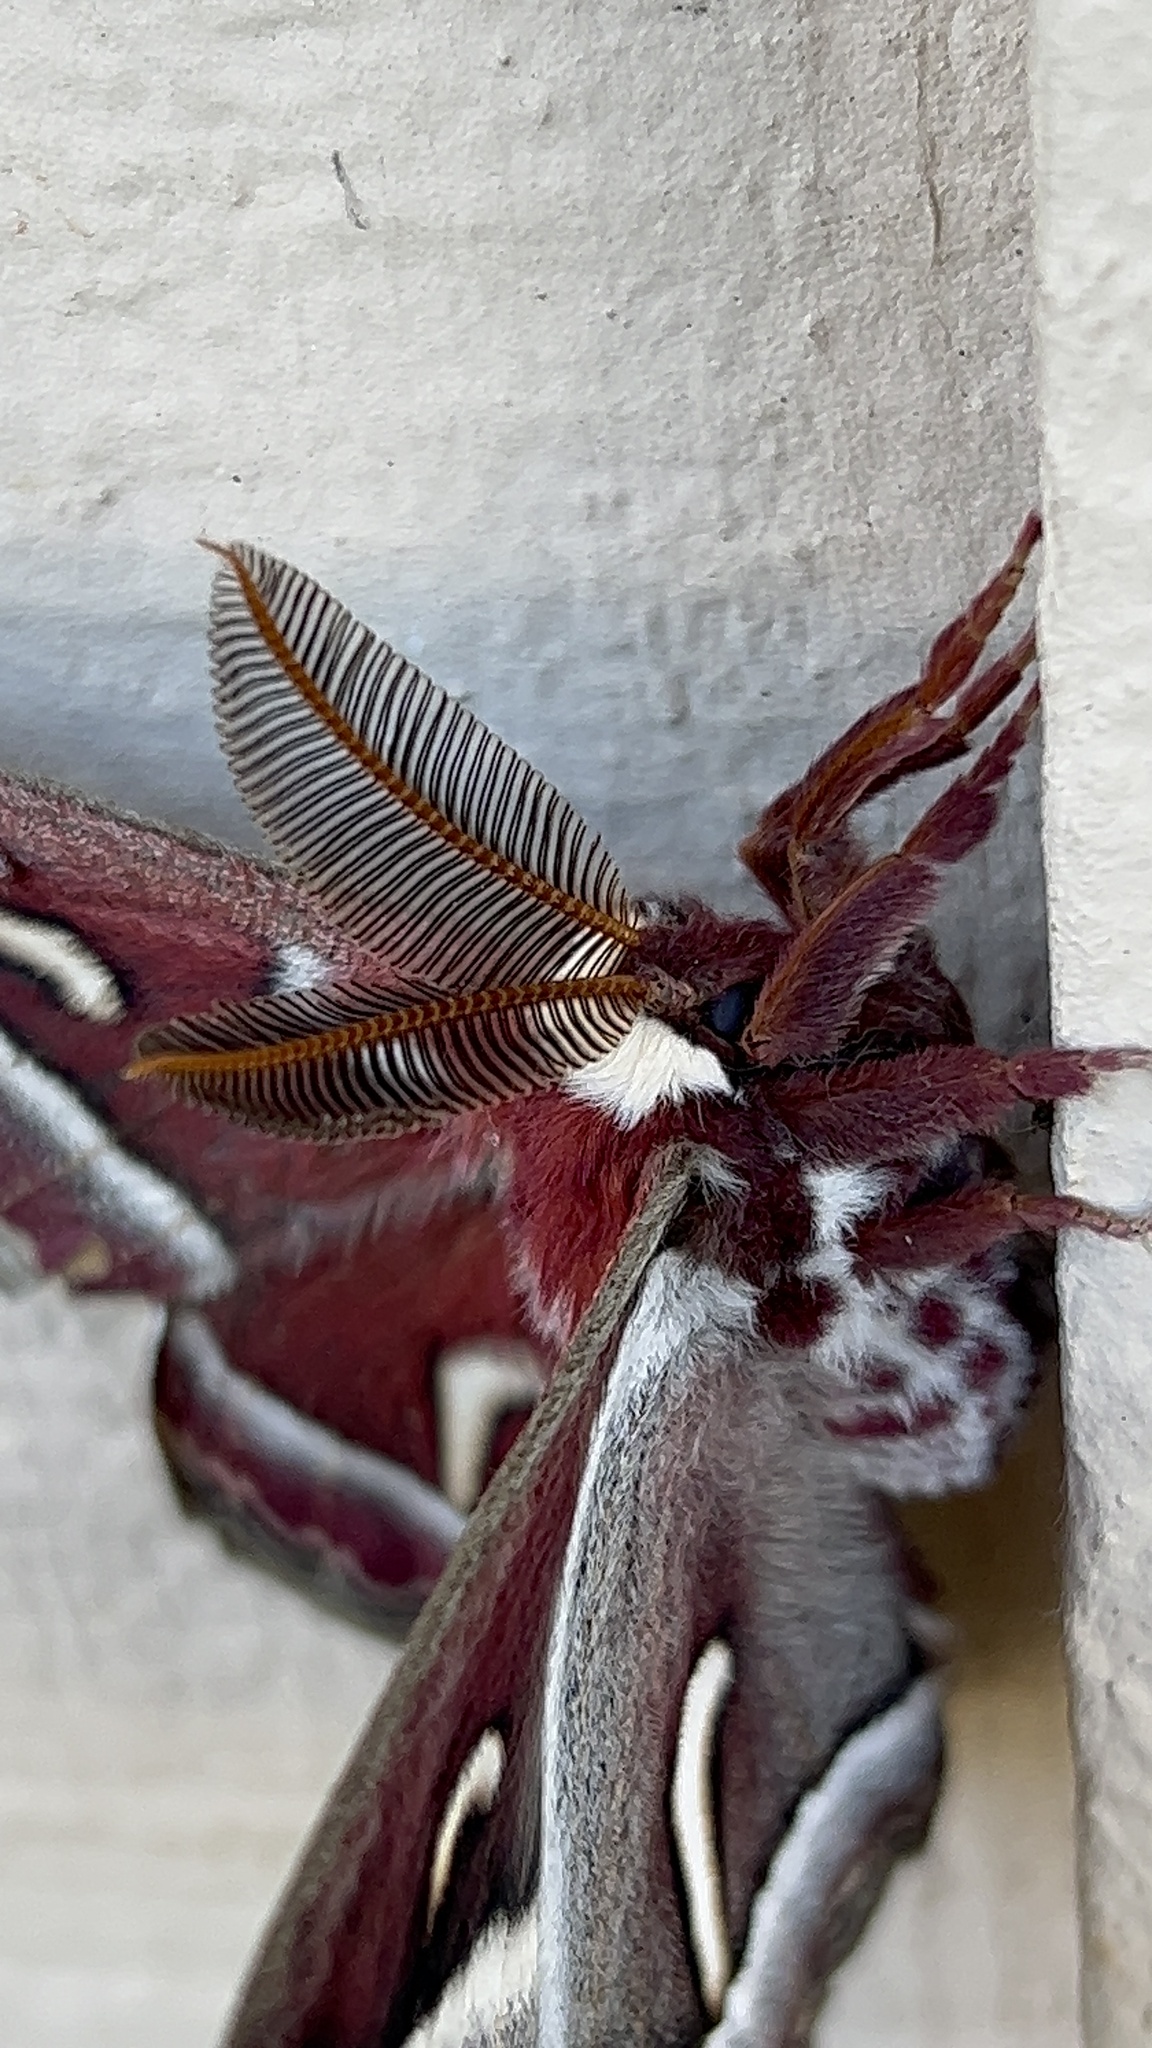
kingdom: Animalia
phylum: Arthropoda
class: Insecta
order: Lepidoptera
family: Saturniidae
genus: Hyalophora
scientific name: Hyalophora euryalus
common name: Ceanothus silkmoth
